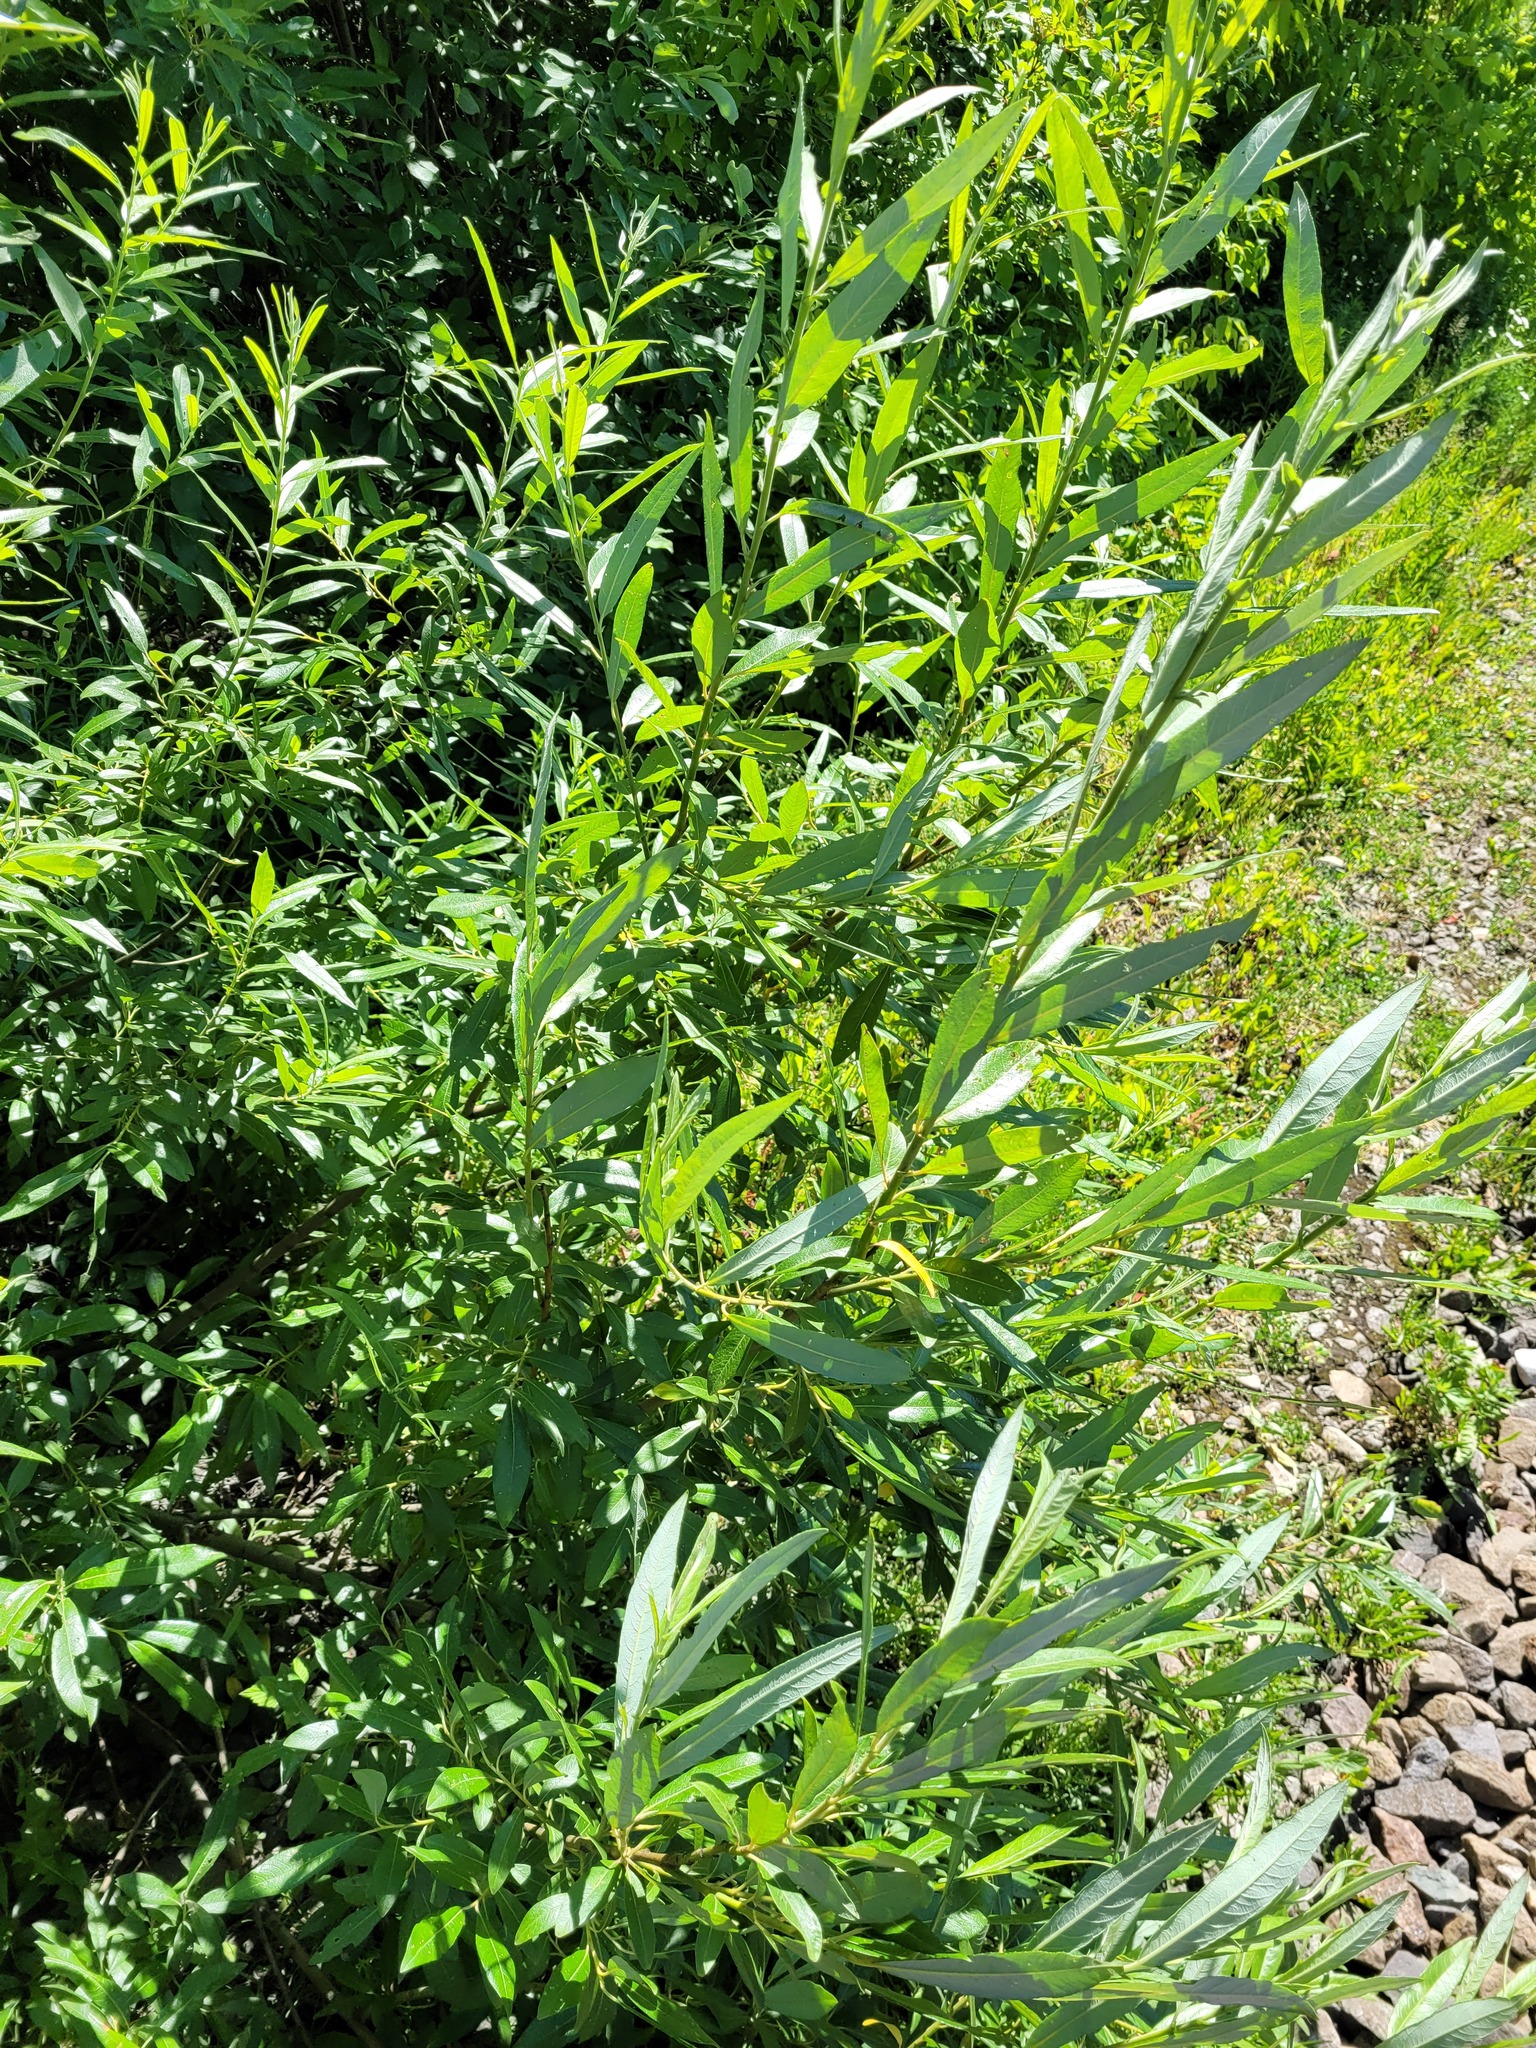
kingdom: Plantae
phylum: Tracheophyta
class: Magnoliopsida
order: Malpighiales
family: Salicaceae
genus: Salix
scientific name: Salix gmelinii
